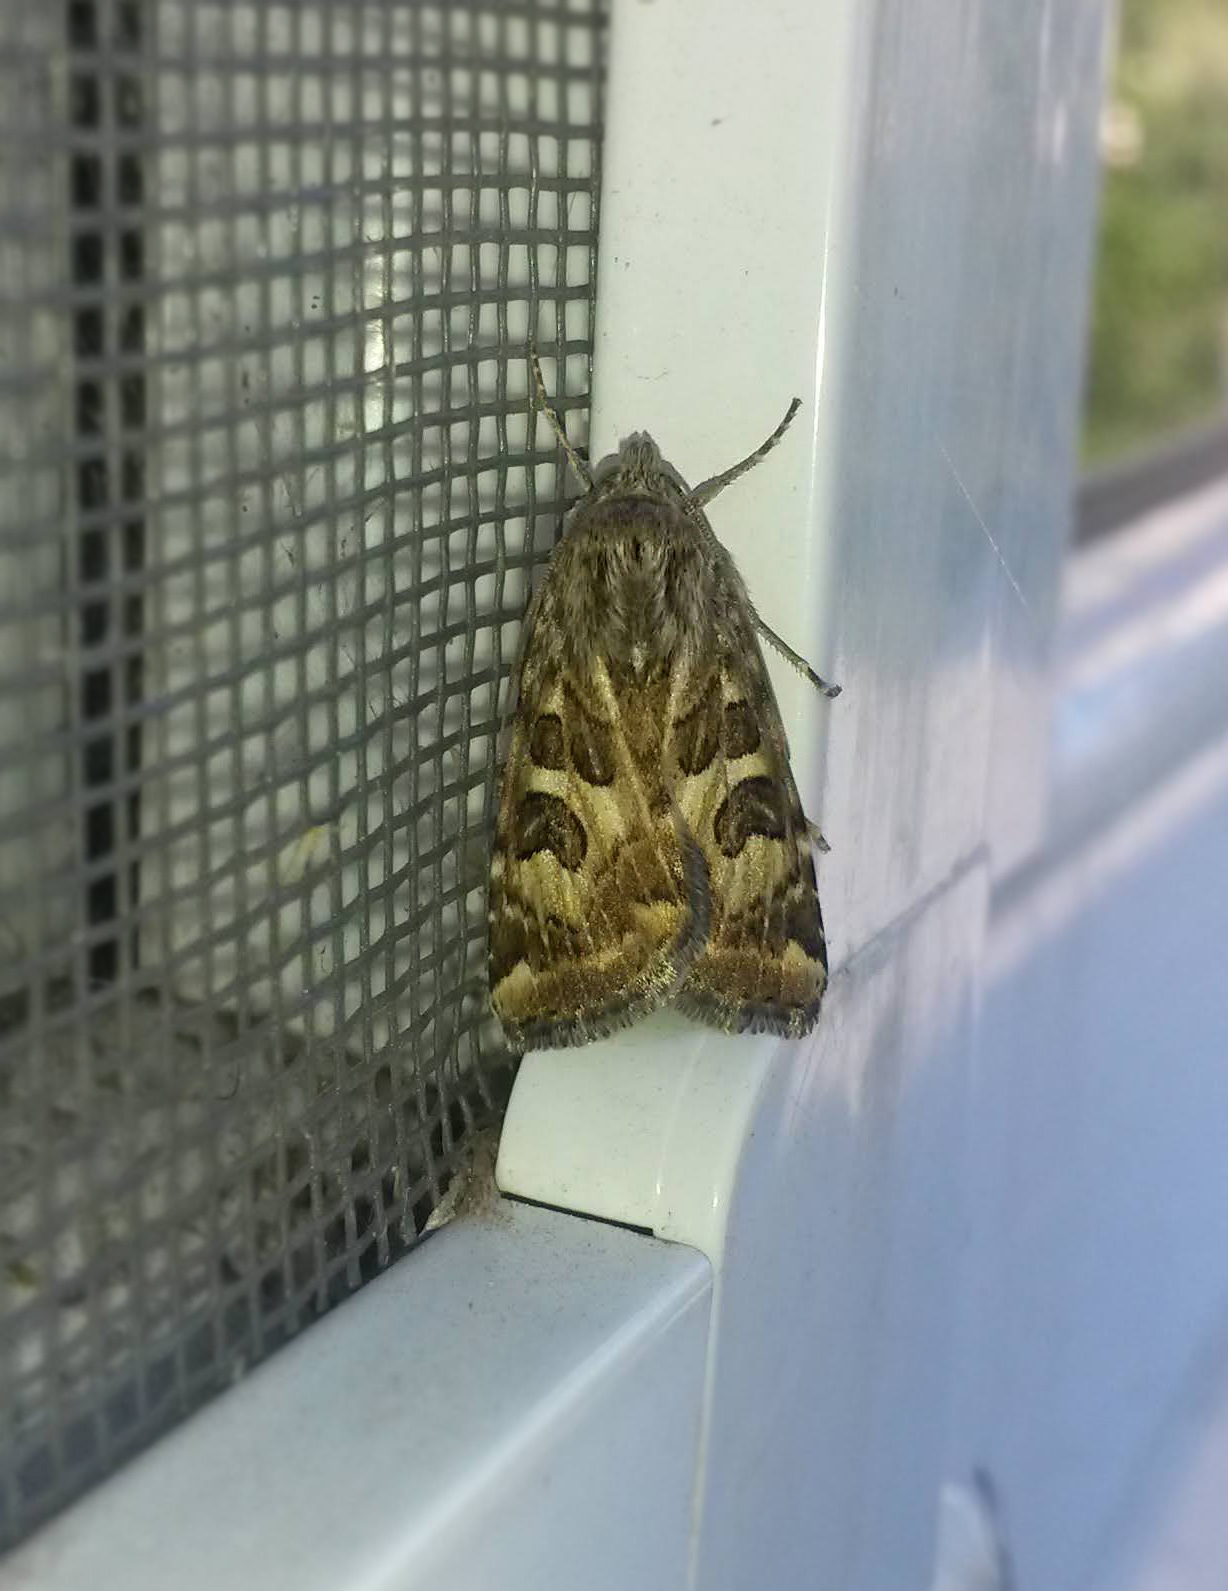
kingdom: Animalia
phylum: Arthropoda
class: Insecta
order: Lepidoptera
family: Noctuidae
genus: Protoschinia
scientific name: Protoschinia scutosa
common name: Spotted clover
